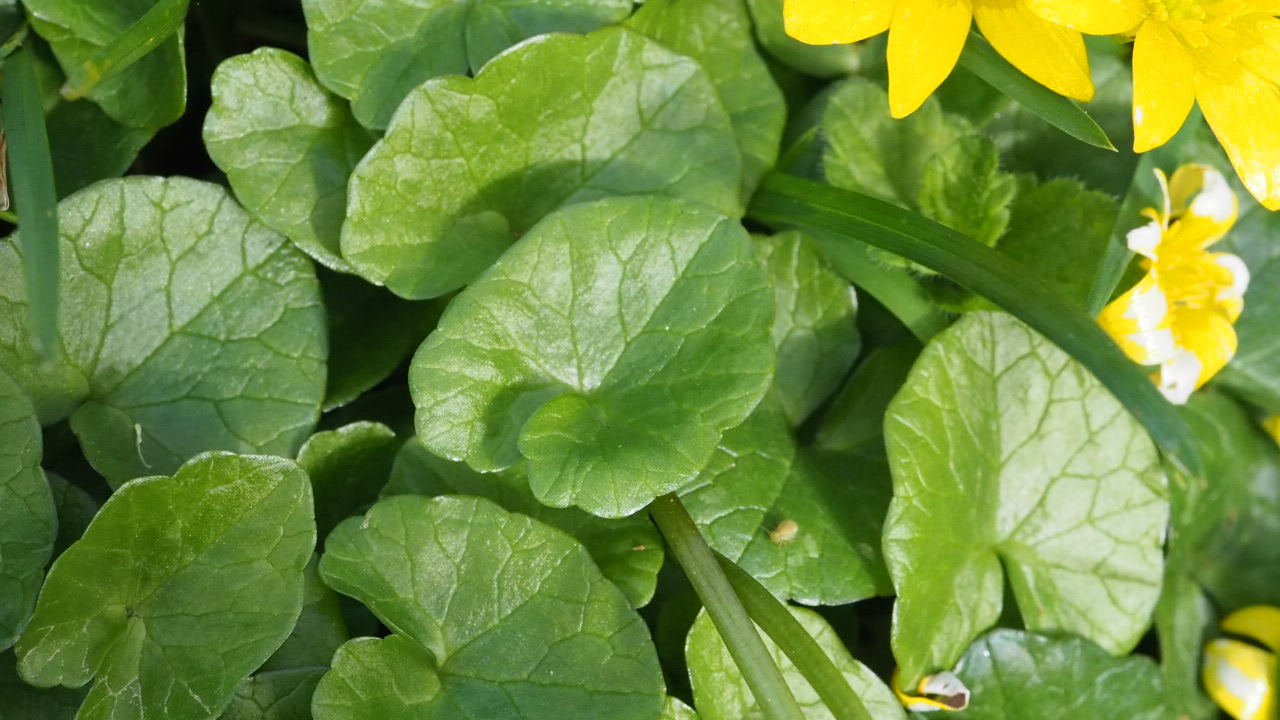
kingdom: Plantae
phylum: Tracheophyta
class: Magnoliopsida
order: Ranunculales
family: Ranunculaceae
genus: Ficaria
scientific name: Ficaria verna
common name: Lesser celandine
